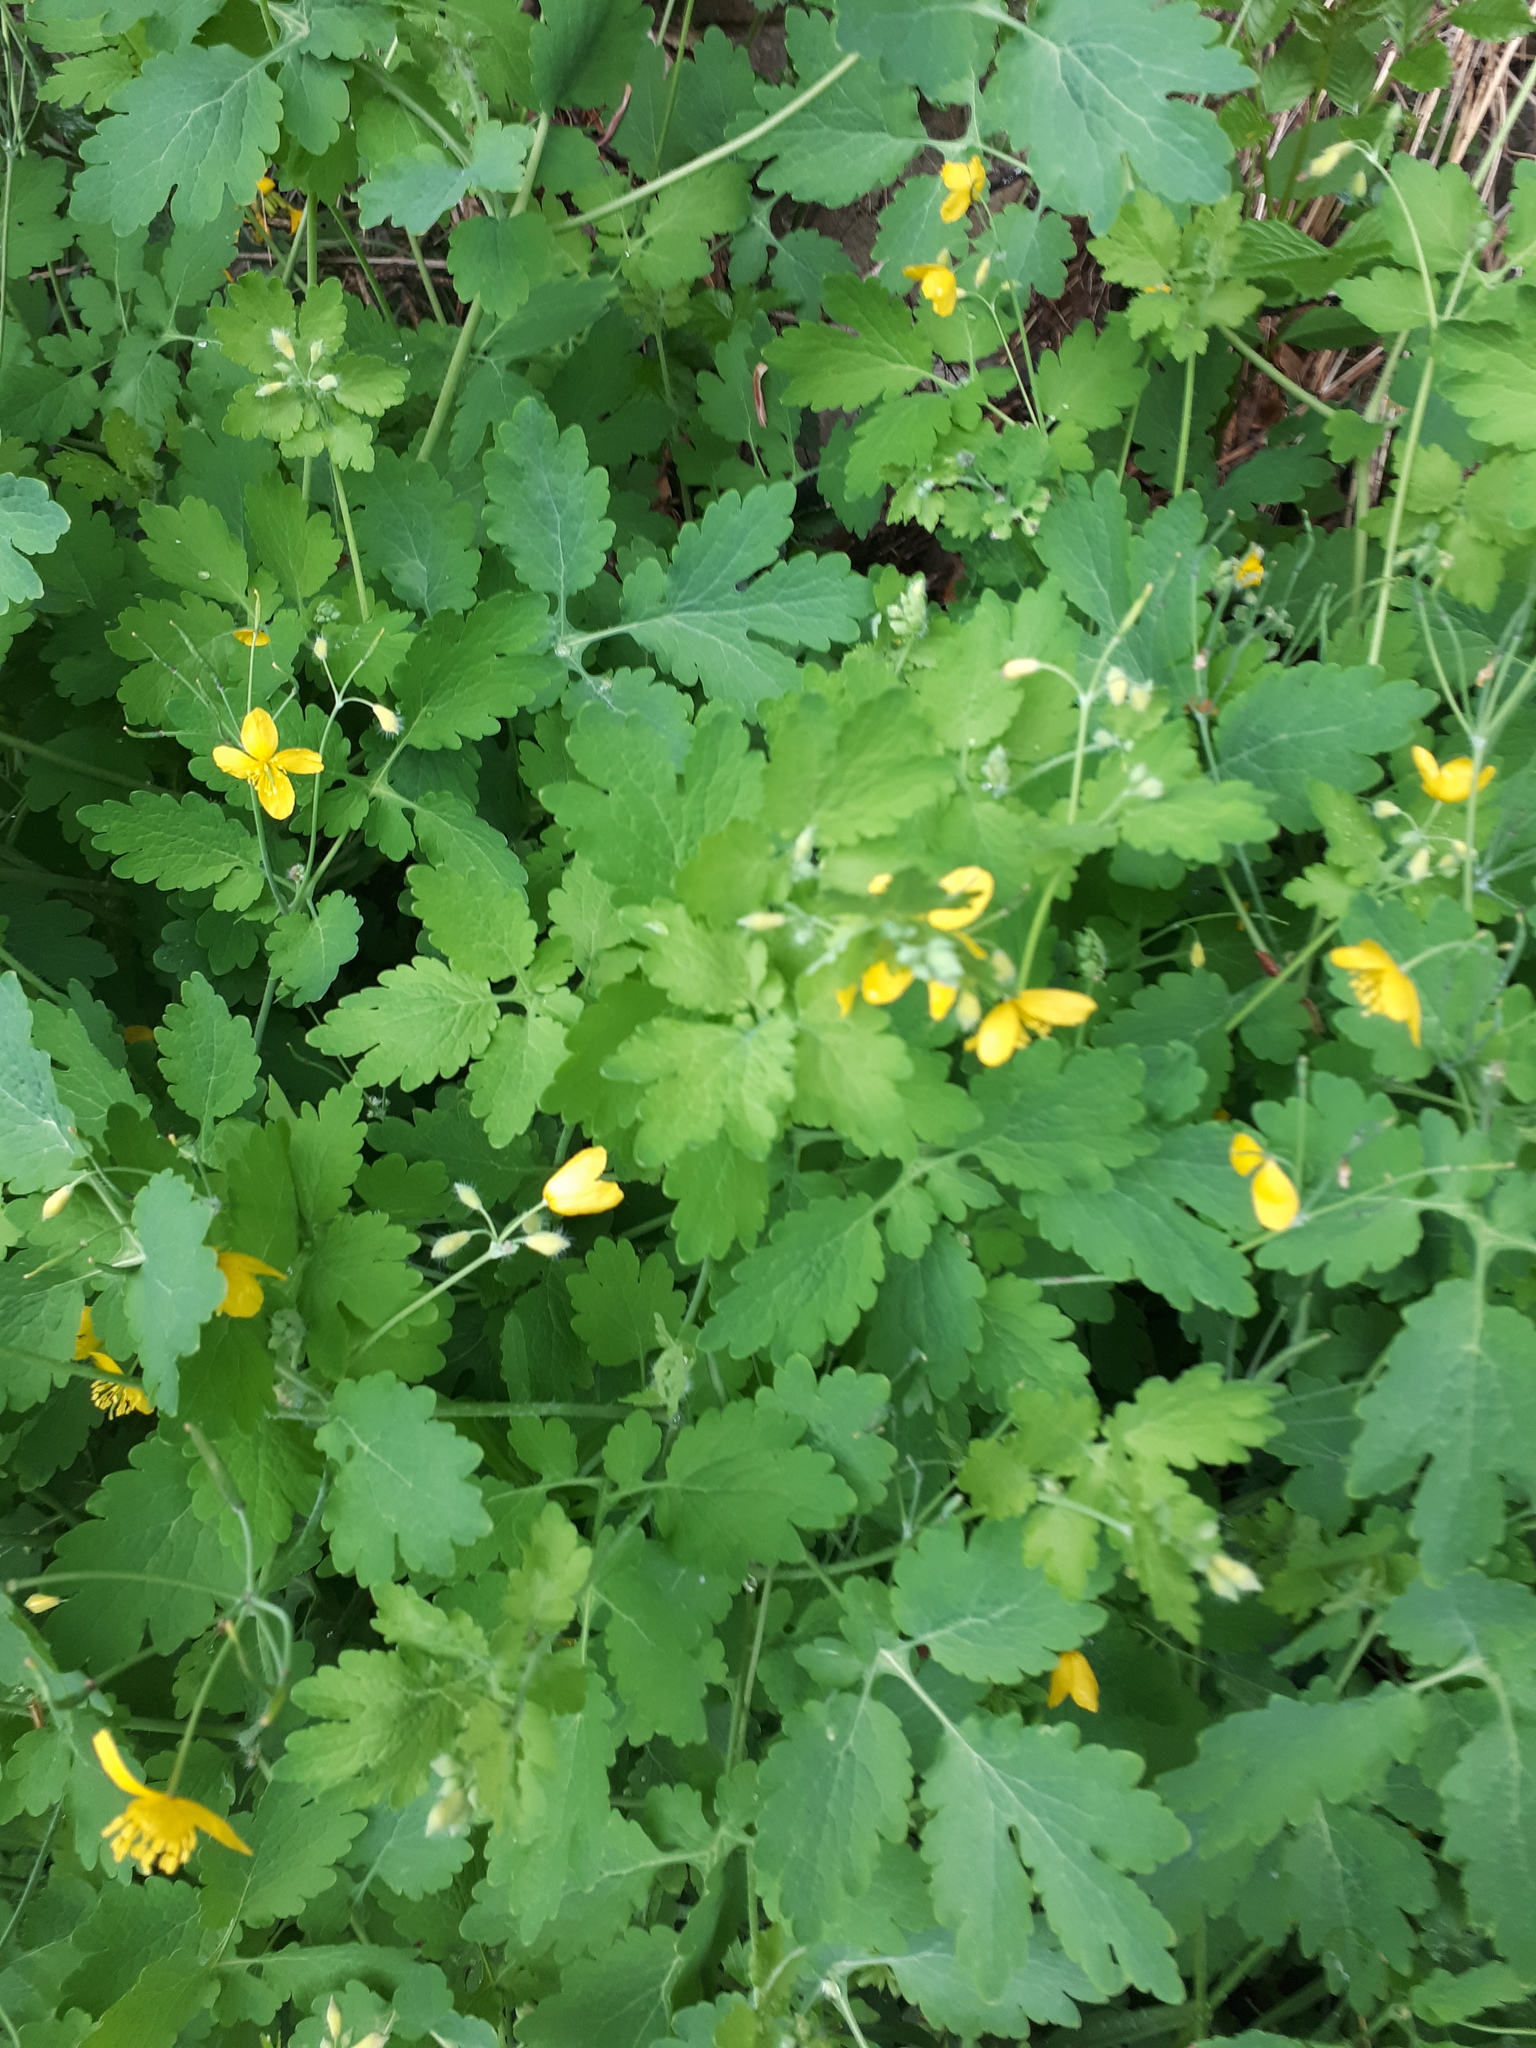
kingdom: Plantae
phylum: Tracheophyta
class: Magnoliopsida
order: Ranunculales
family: Papaveraceae
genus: Chelidonium
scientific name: Chelidonium majus
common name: Greater celandine
